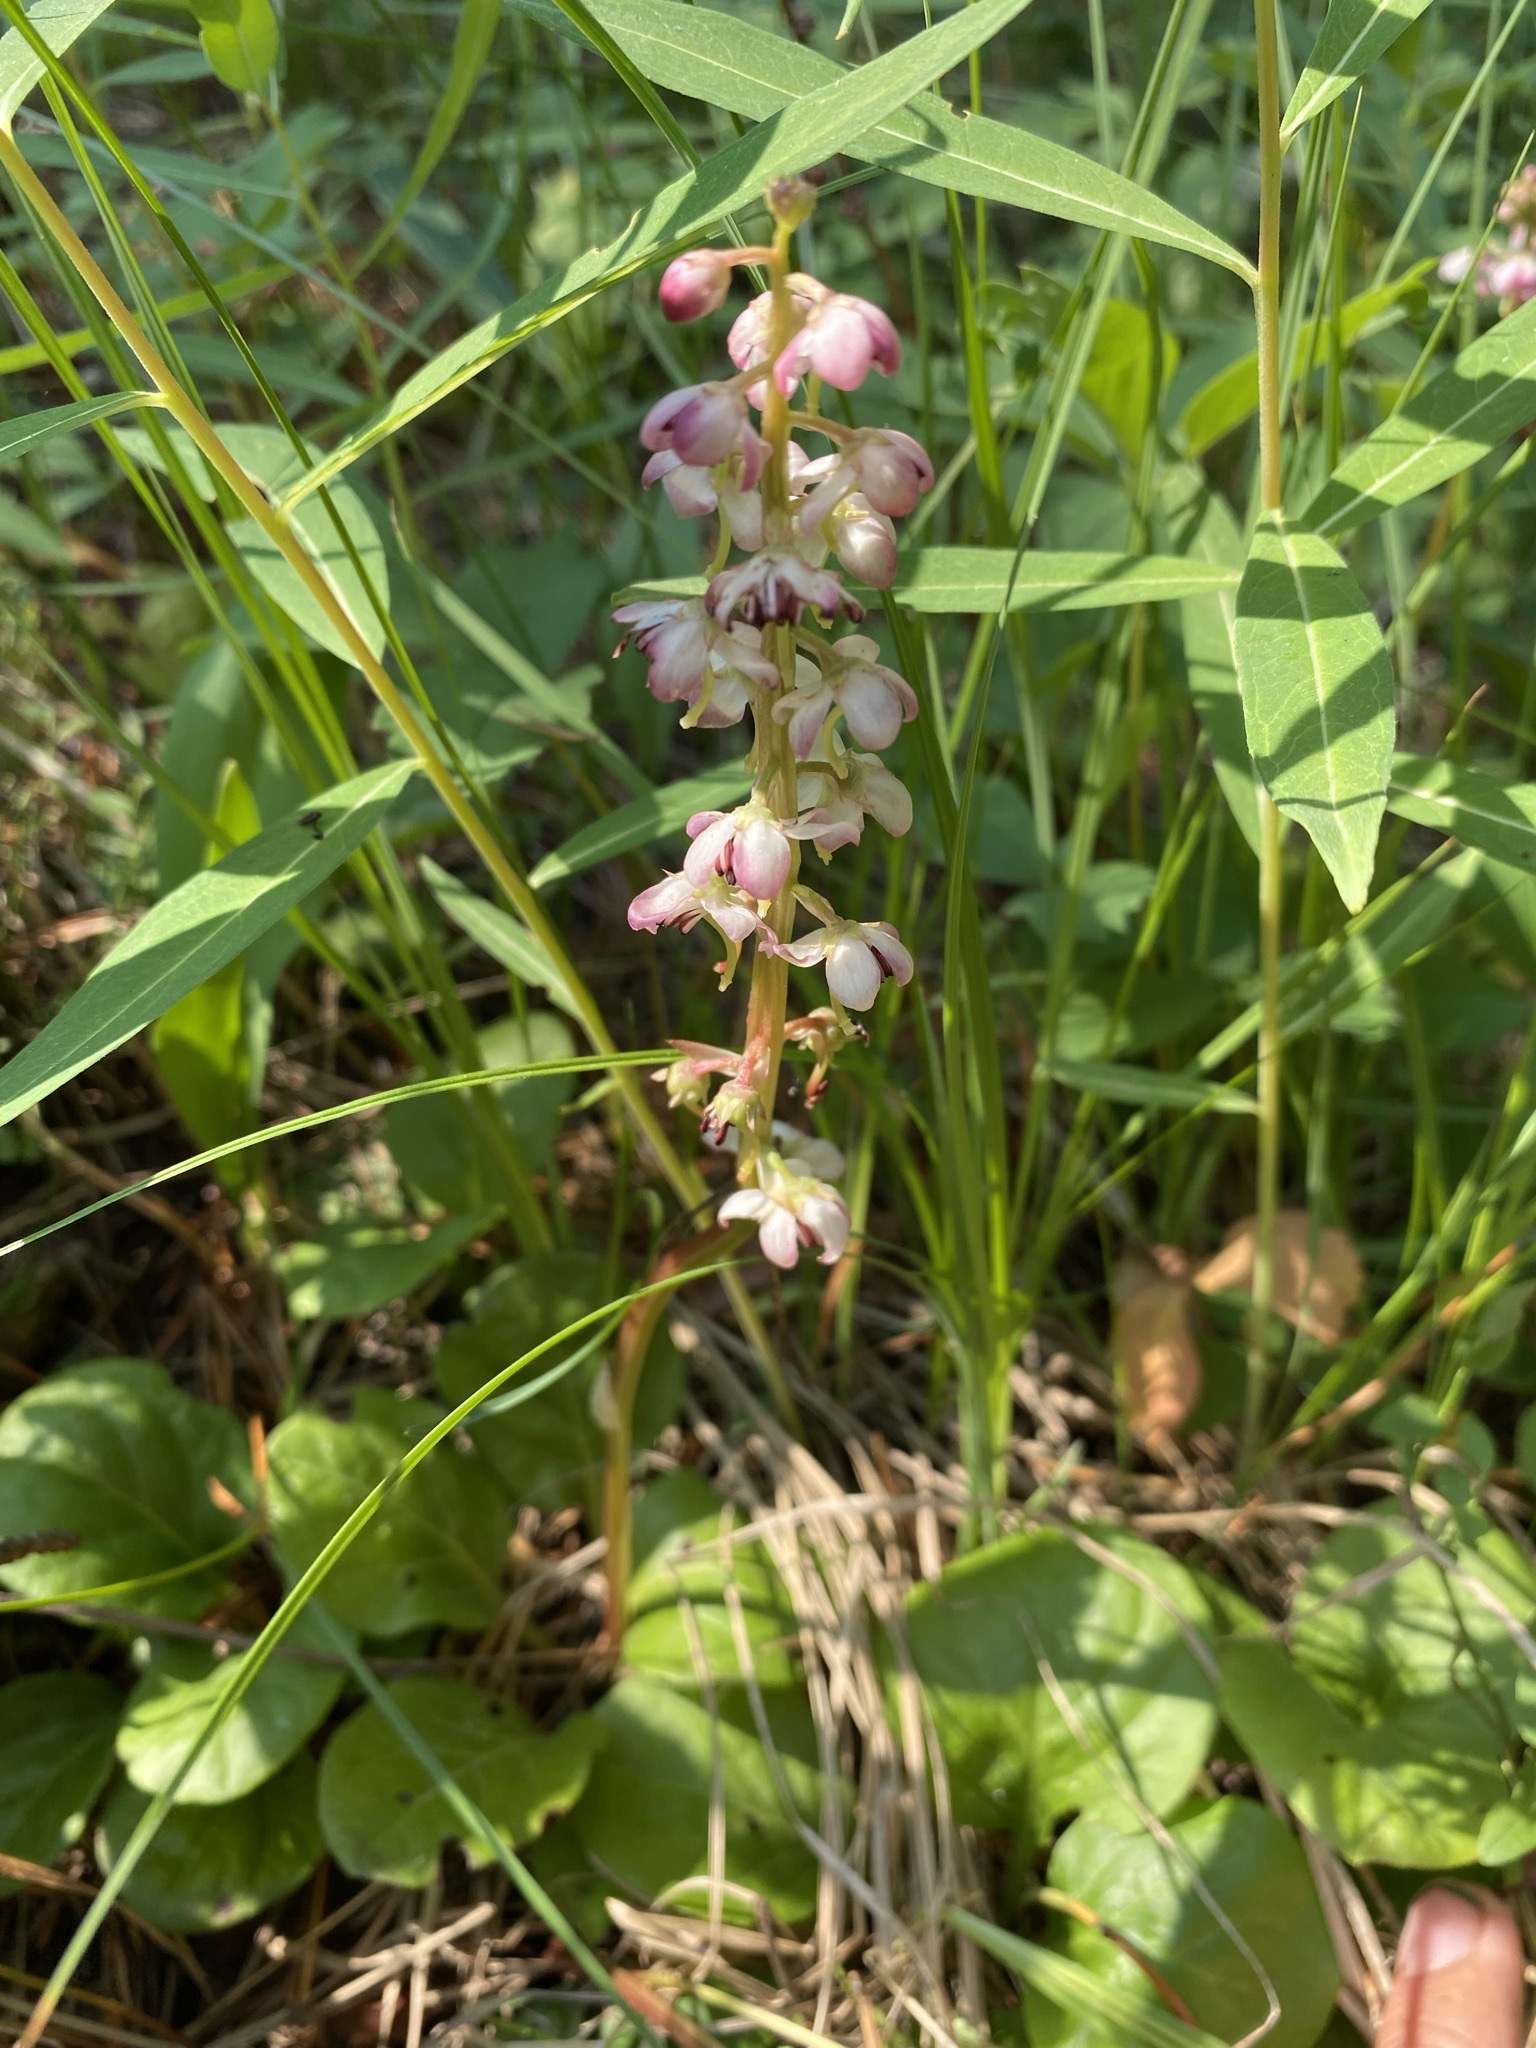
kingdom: Plantae
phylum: Tracheophyta
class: Magnoliopsida
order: Ericales
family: Ericaceae
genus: Pyrola
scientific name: Pyrola asarifolia
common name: Bog wintergreen
